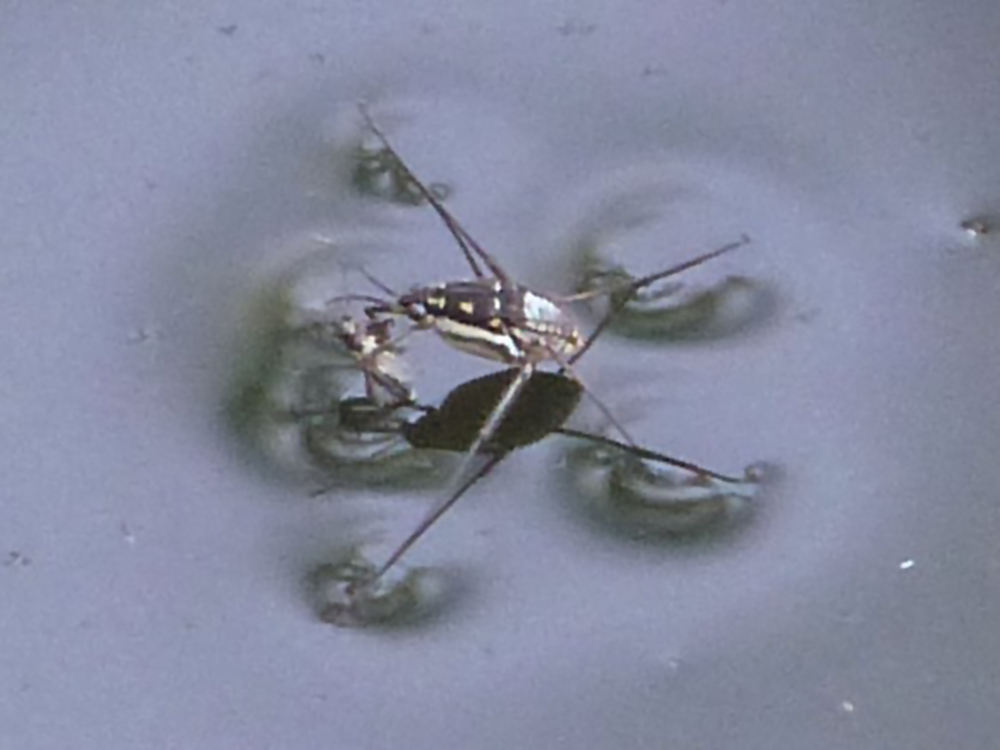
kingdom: Animalia
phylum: Arthropoda
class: Insecta
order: Hemiptera
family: Gerridae
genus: Trepobates
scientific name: Trepobates subnitidus
